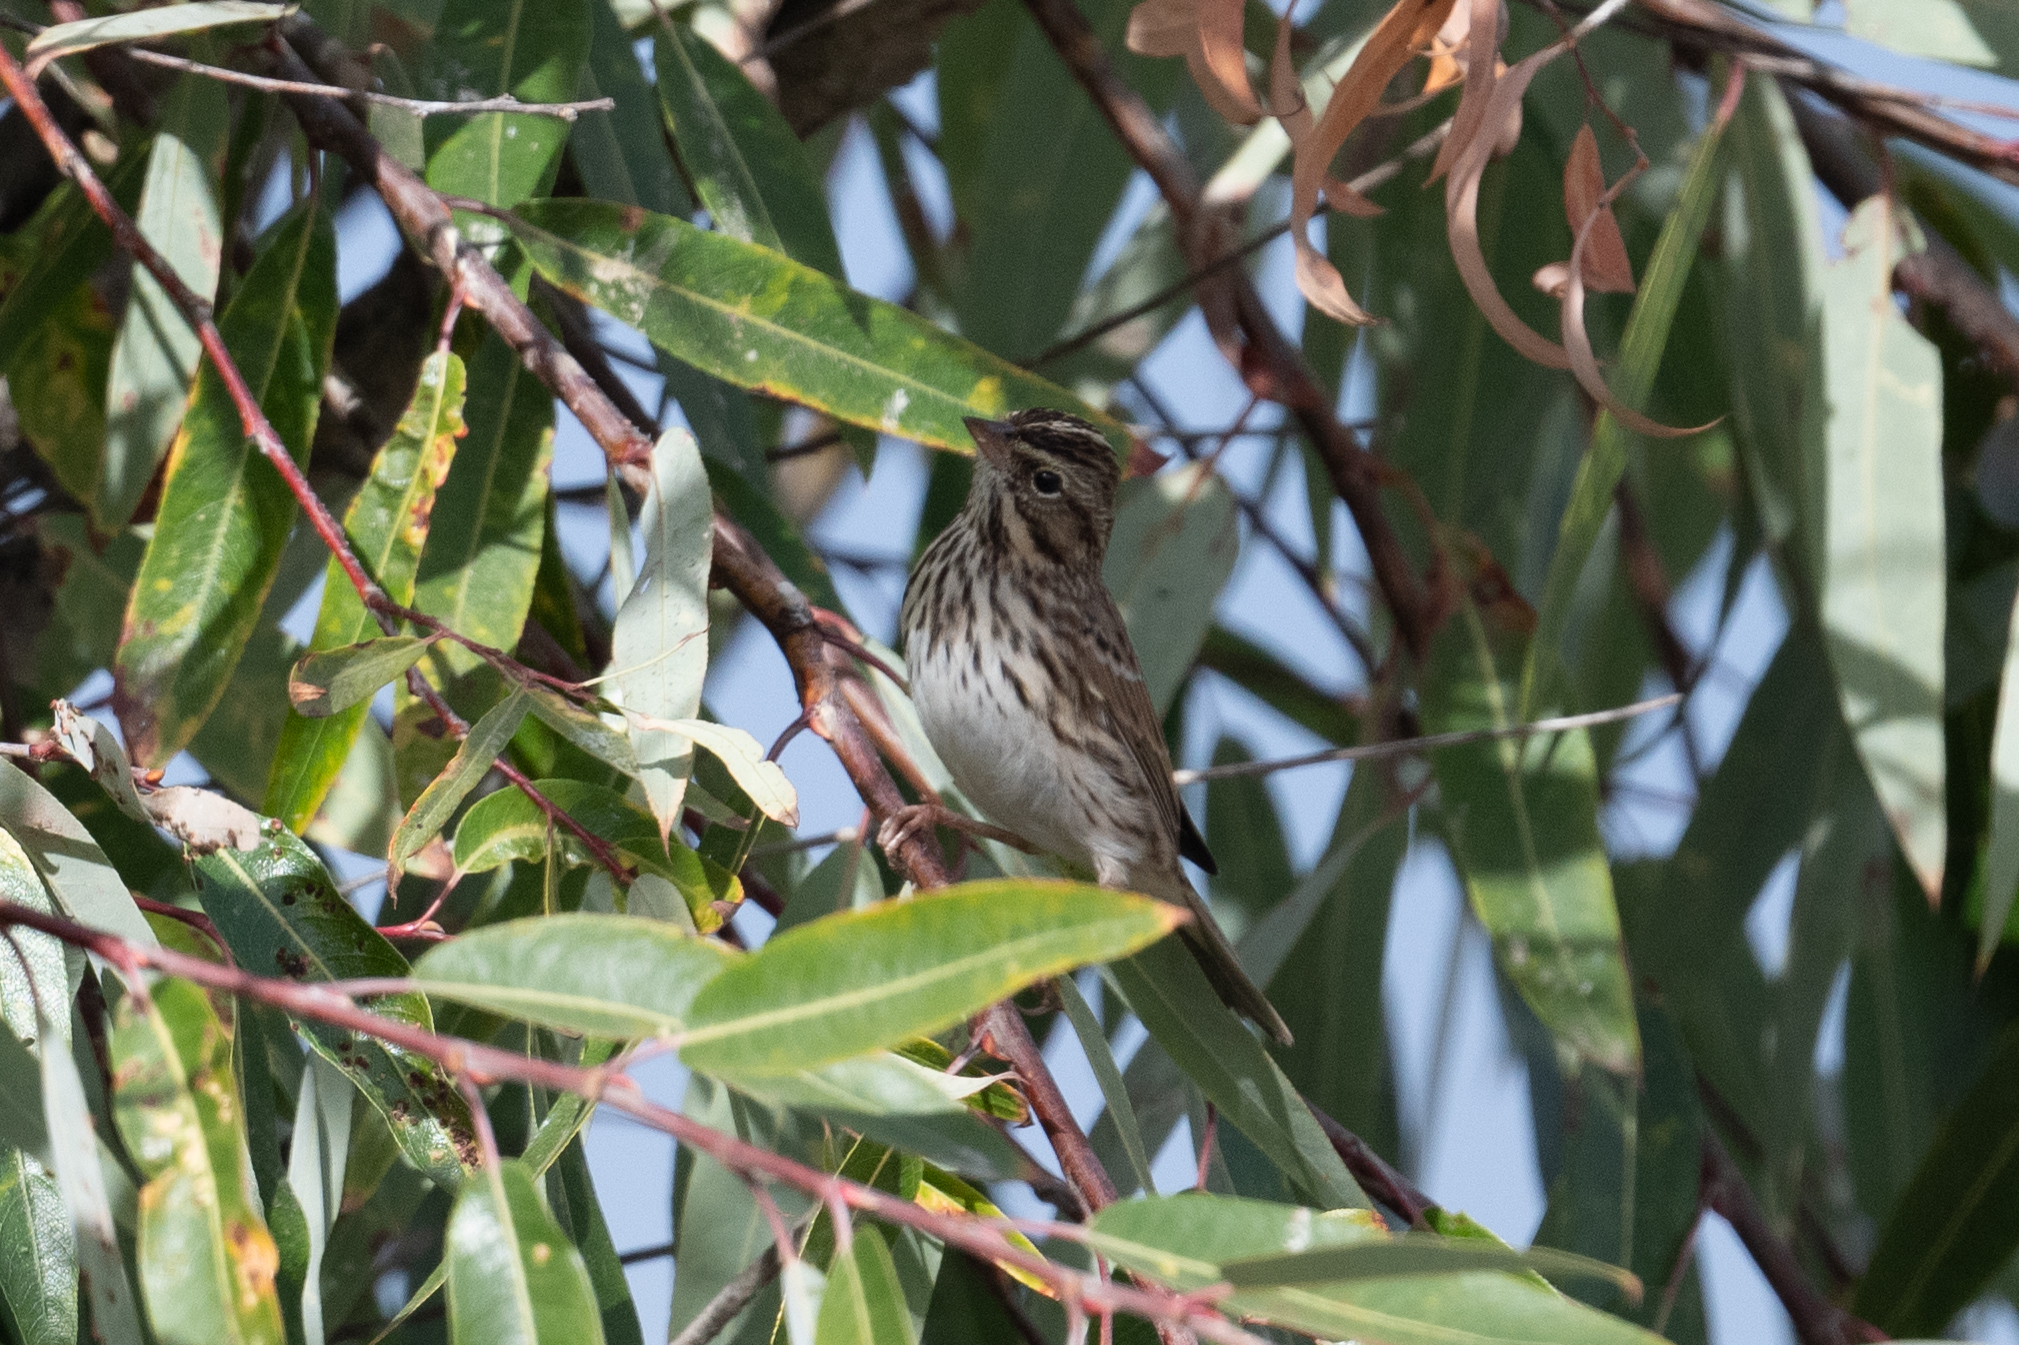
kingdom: Animalia
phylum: Chordata
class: Aves
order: Passeriformes
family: Passerellidae
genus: Passerculus
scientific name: Passerculus sandwichensis
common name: Savannah sparrow
